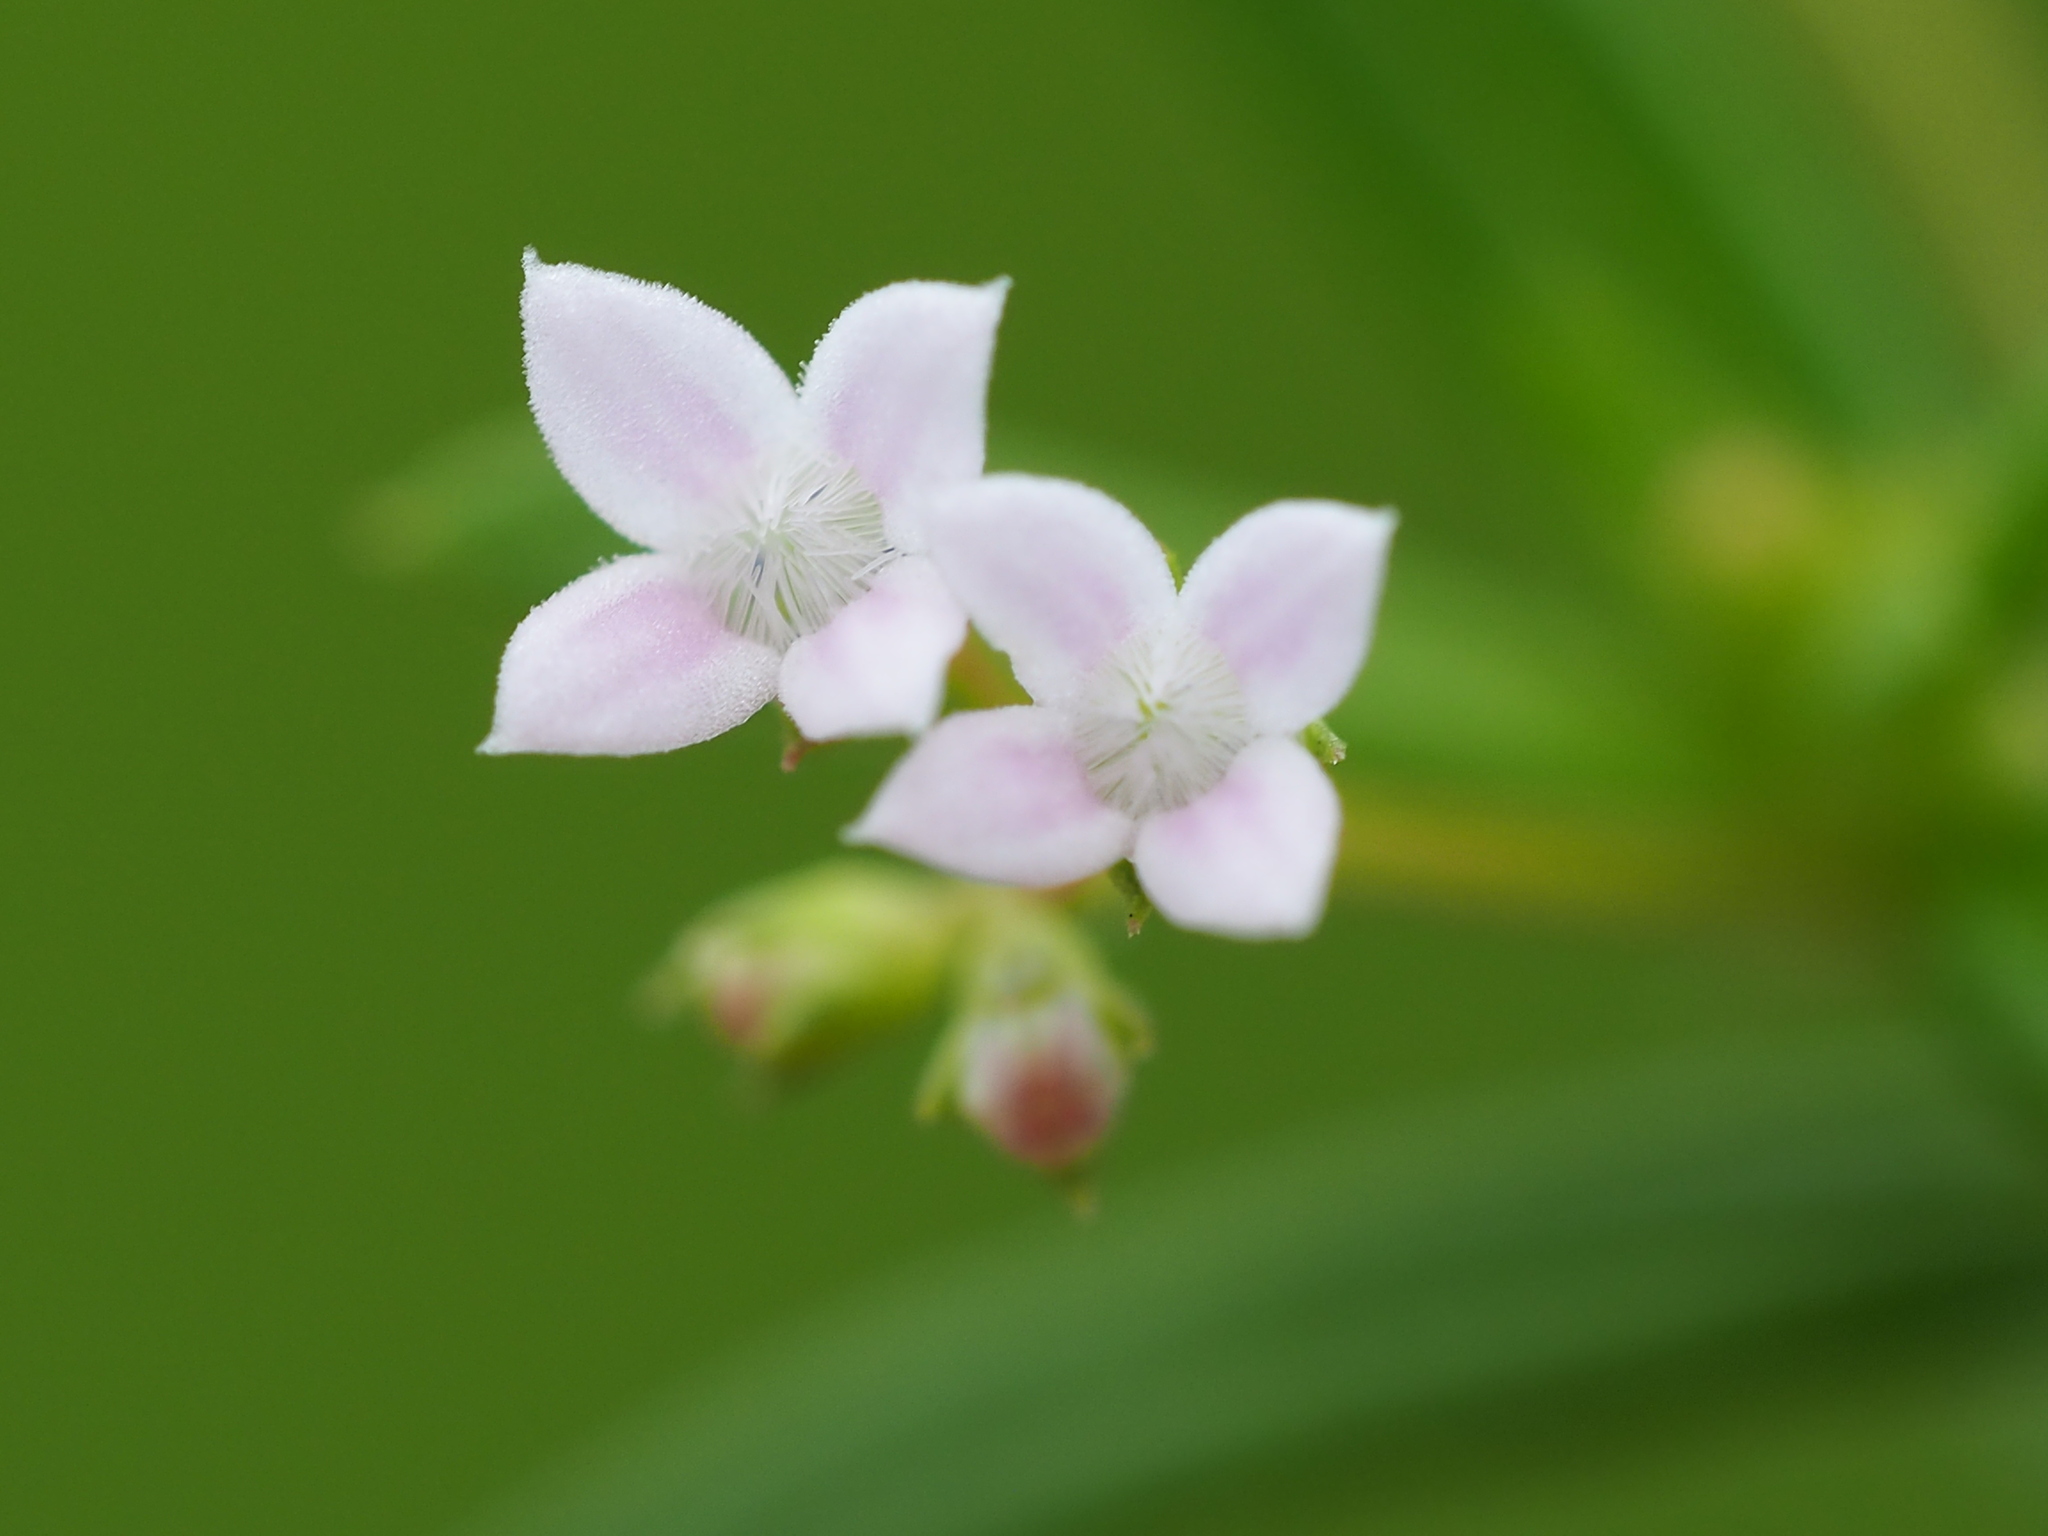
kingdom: Plantae
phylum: Tracheophyta
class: Magnoliopsida
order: Gentianales
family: Rubiaceae
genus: Oldenlandia
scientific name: Oldenlandia corymbosa
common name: Flat-top mille graines
